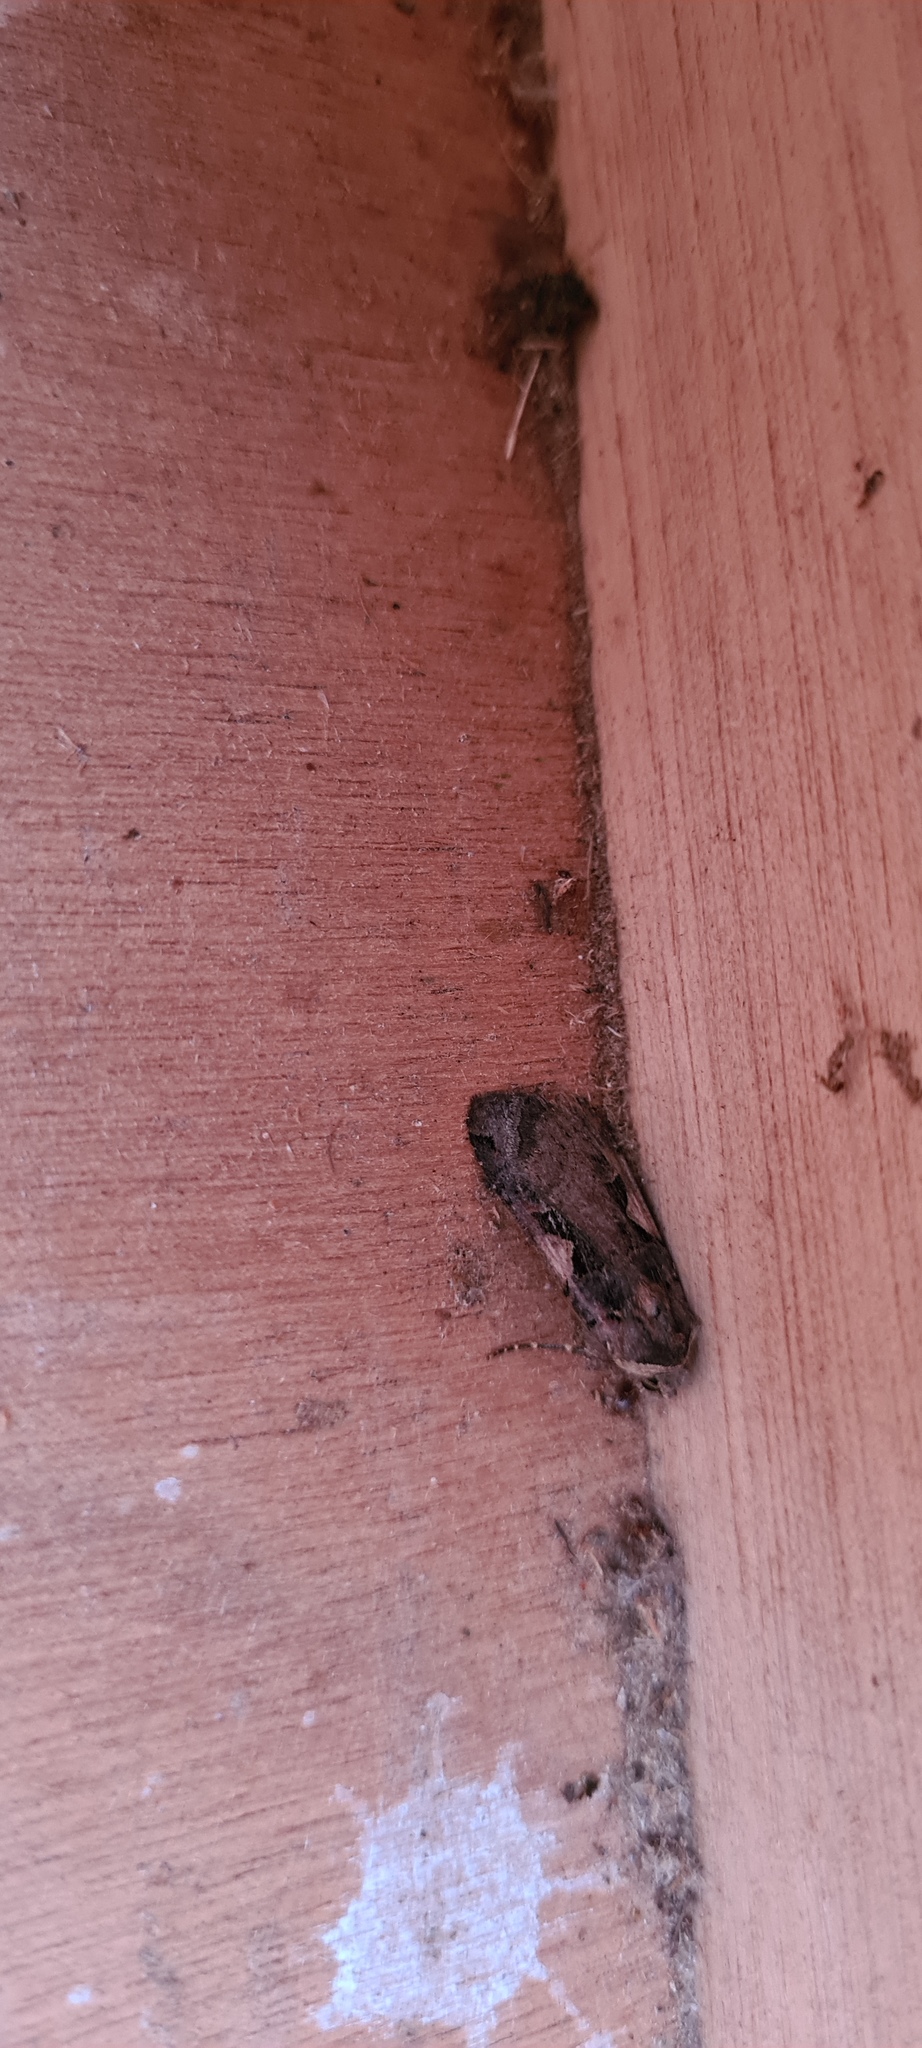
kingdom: Animalia
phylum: Arthropoda
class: Insecta
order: Lepidoptera
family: Noctuidae
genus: Xestia
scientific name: Xestia c-nigrum
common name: Setaceous hebrew character
